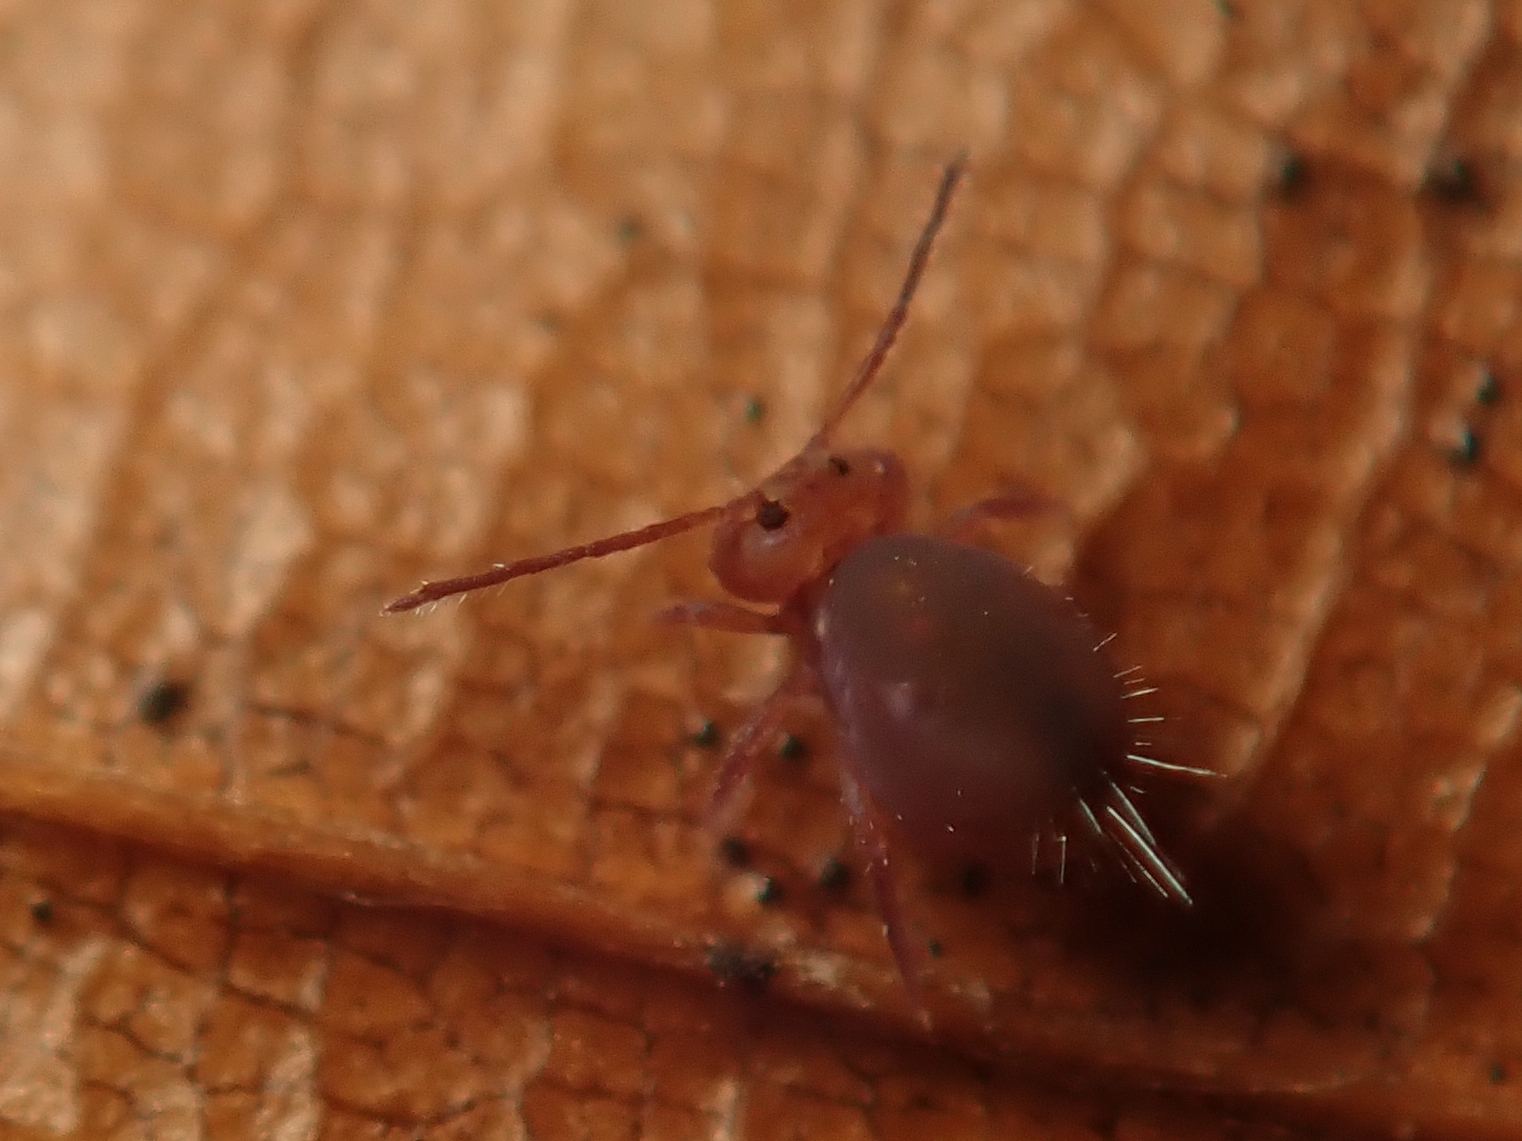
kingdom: Animalia
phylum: Arthropoda
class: Collembola
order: Symphypleona
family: Dicyrtomidae
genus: Dicyrtoma
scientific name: Dicyrtoma fusca
